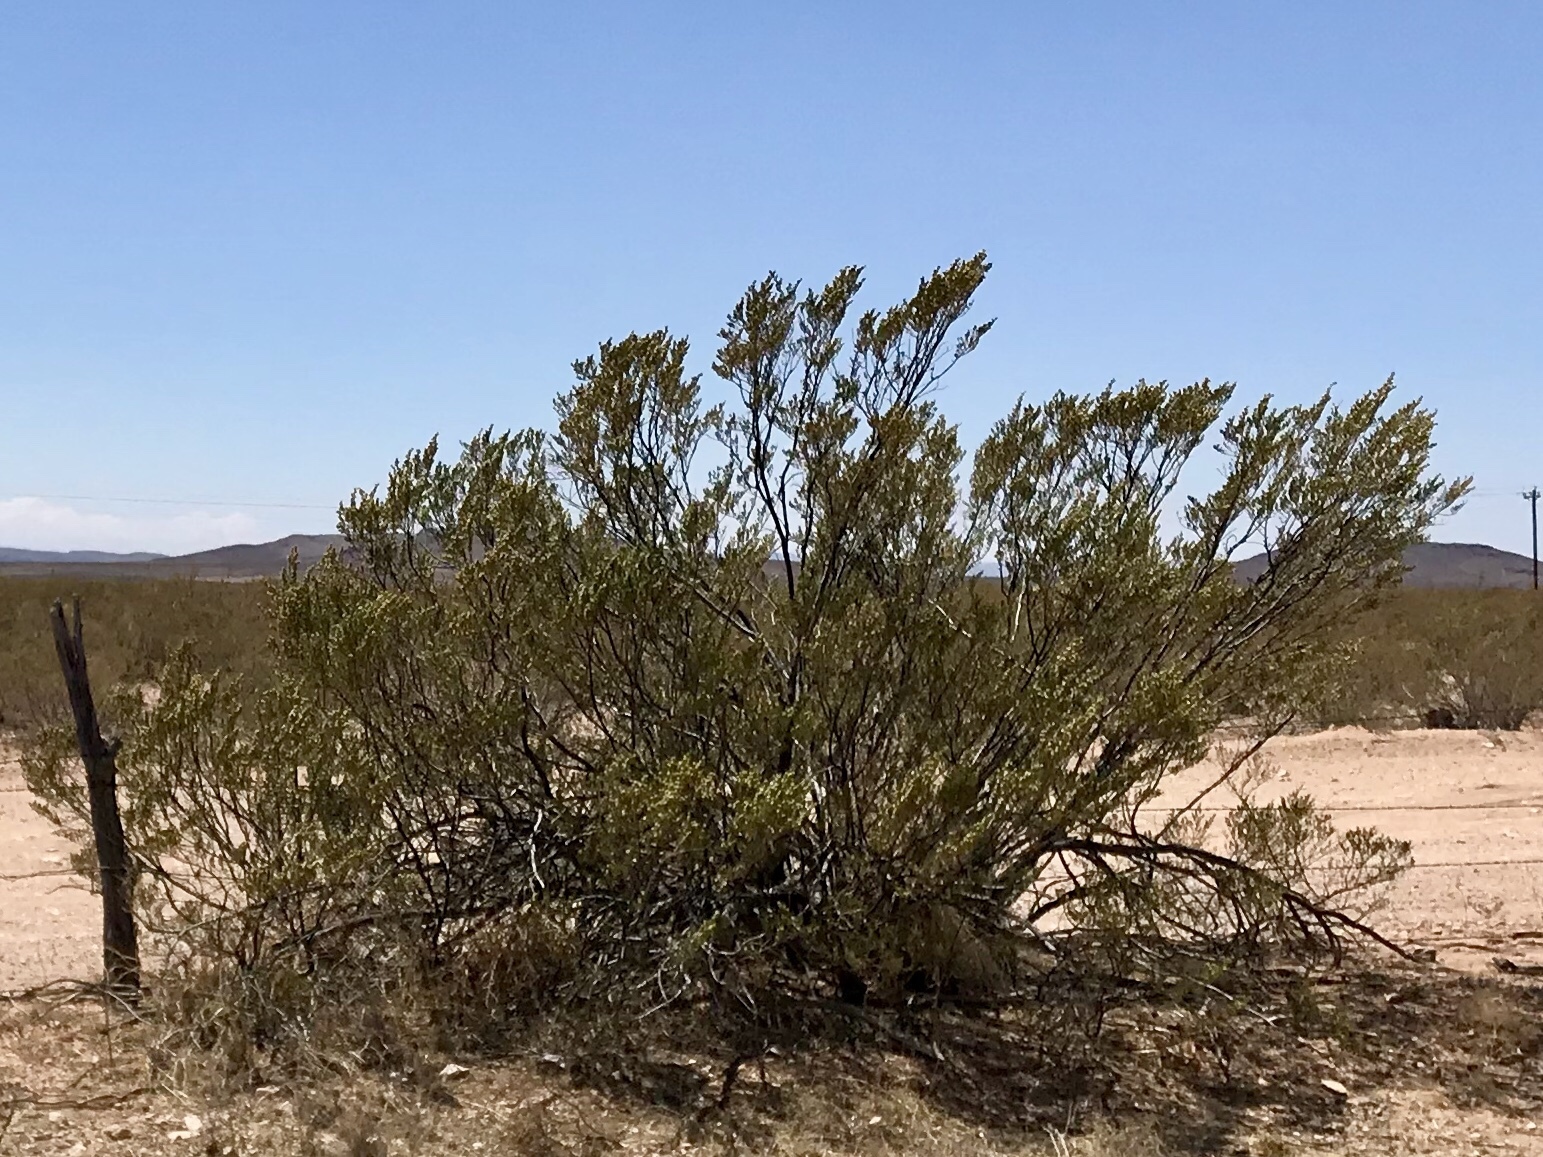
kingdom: Plantae
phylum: Tracheophyta
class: Magnoliopsida
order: Zygophyllales
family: Zygophyllaceae
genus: Larrea
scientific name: Larrea tridentata
